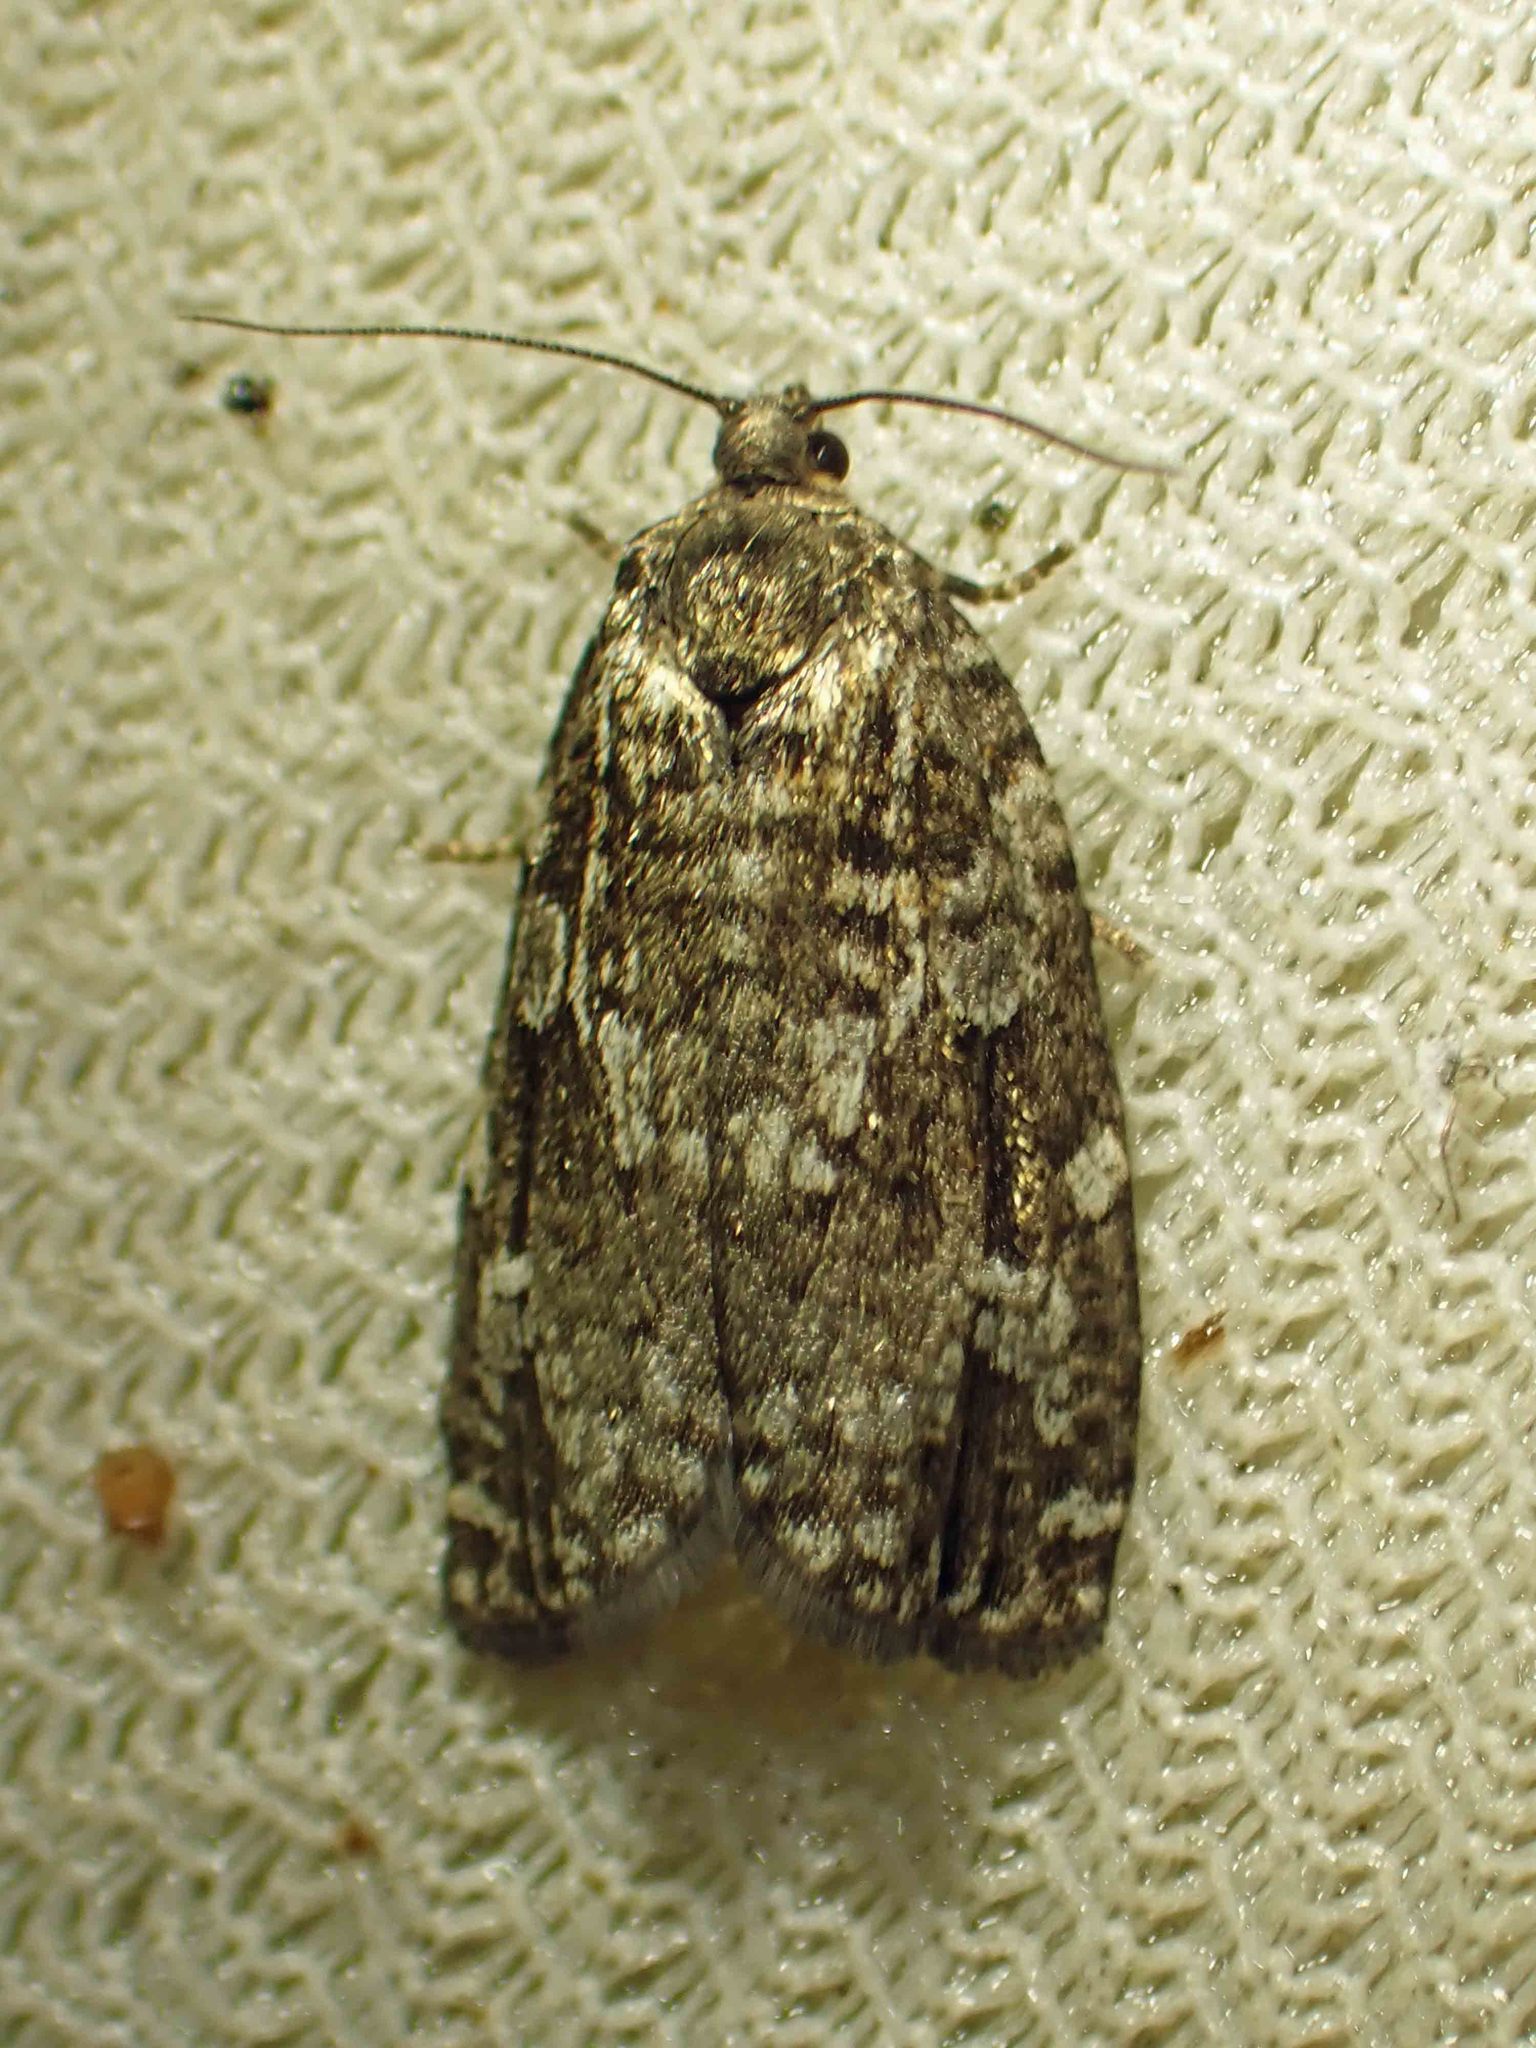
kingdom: Animalia
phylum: Arthropoda
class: Insecta
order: Lepidoptera
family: Tortricidae
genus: Choristoneura
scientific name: Choristoneura fumiferana
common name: Spruce budworm
